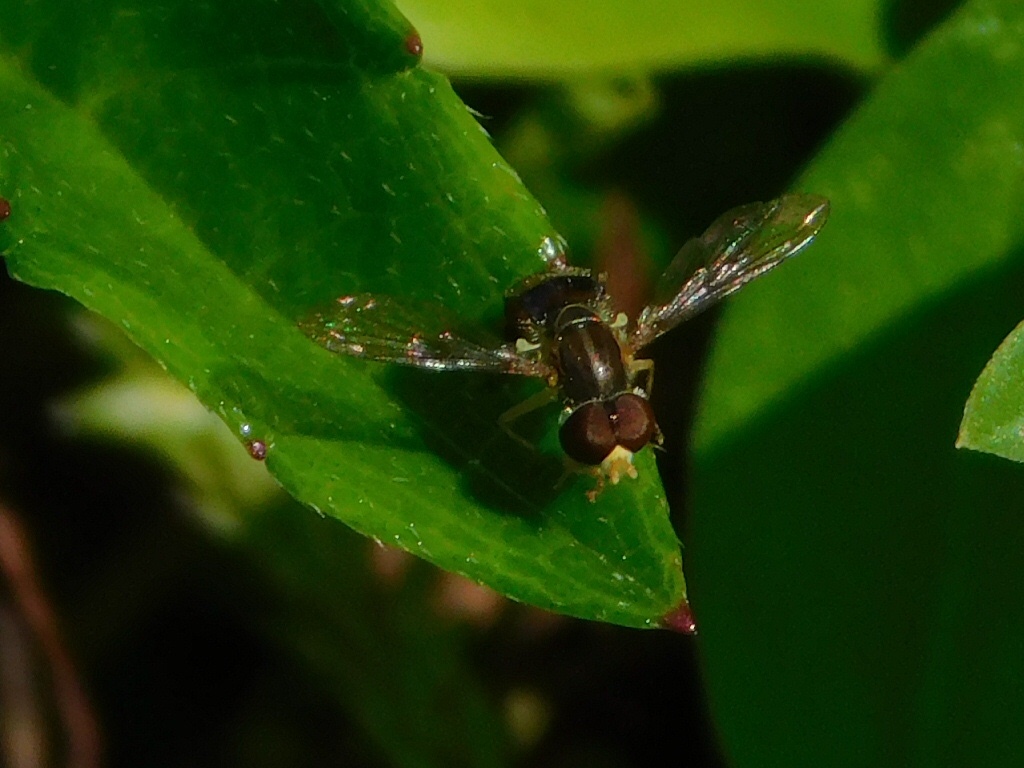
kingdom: Animalia
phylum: Arthropoda
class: Insecta
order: Diptera
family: Syrphidae
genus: Toxomerus
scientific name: Toxomerus boscii
